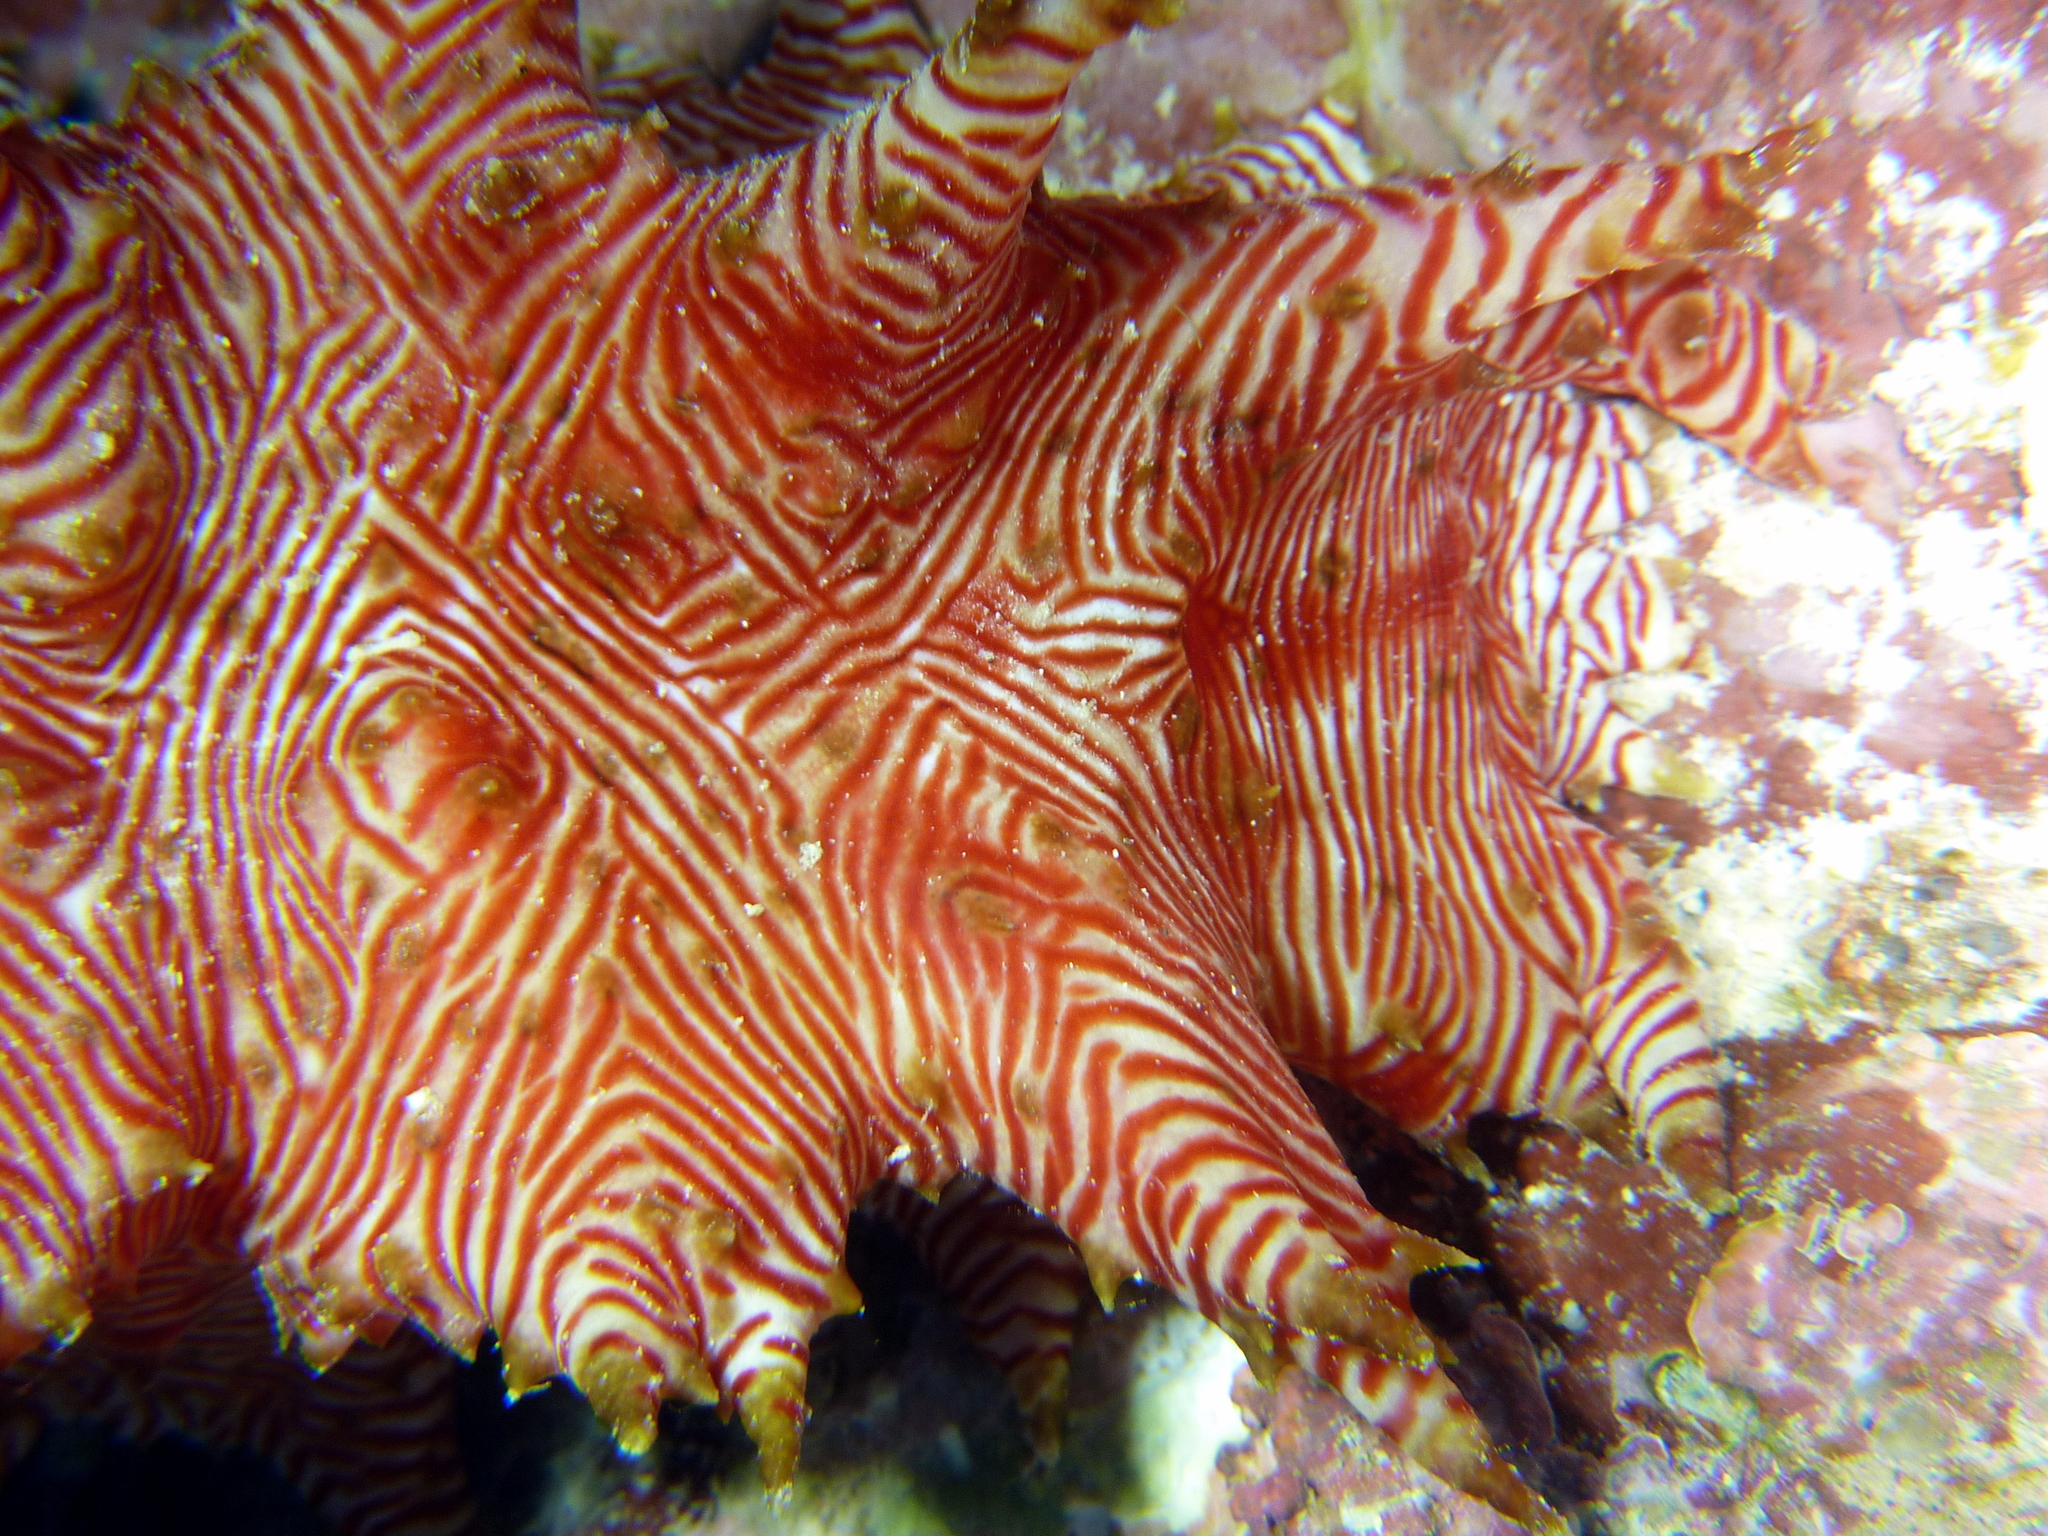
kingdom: Animalia
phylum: Echinodermata
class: Holothuroidea
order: Synallactida
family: Stichopodidae
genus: Thelenota
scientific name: Thelenota rubralineata
